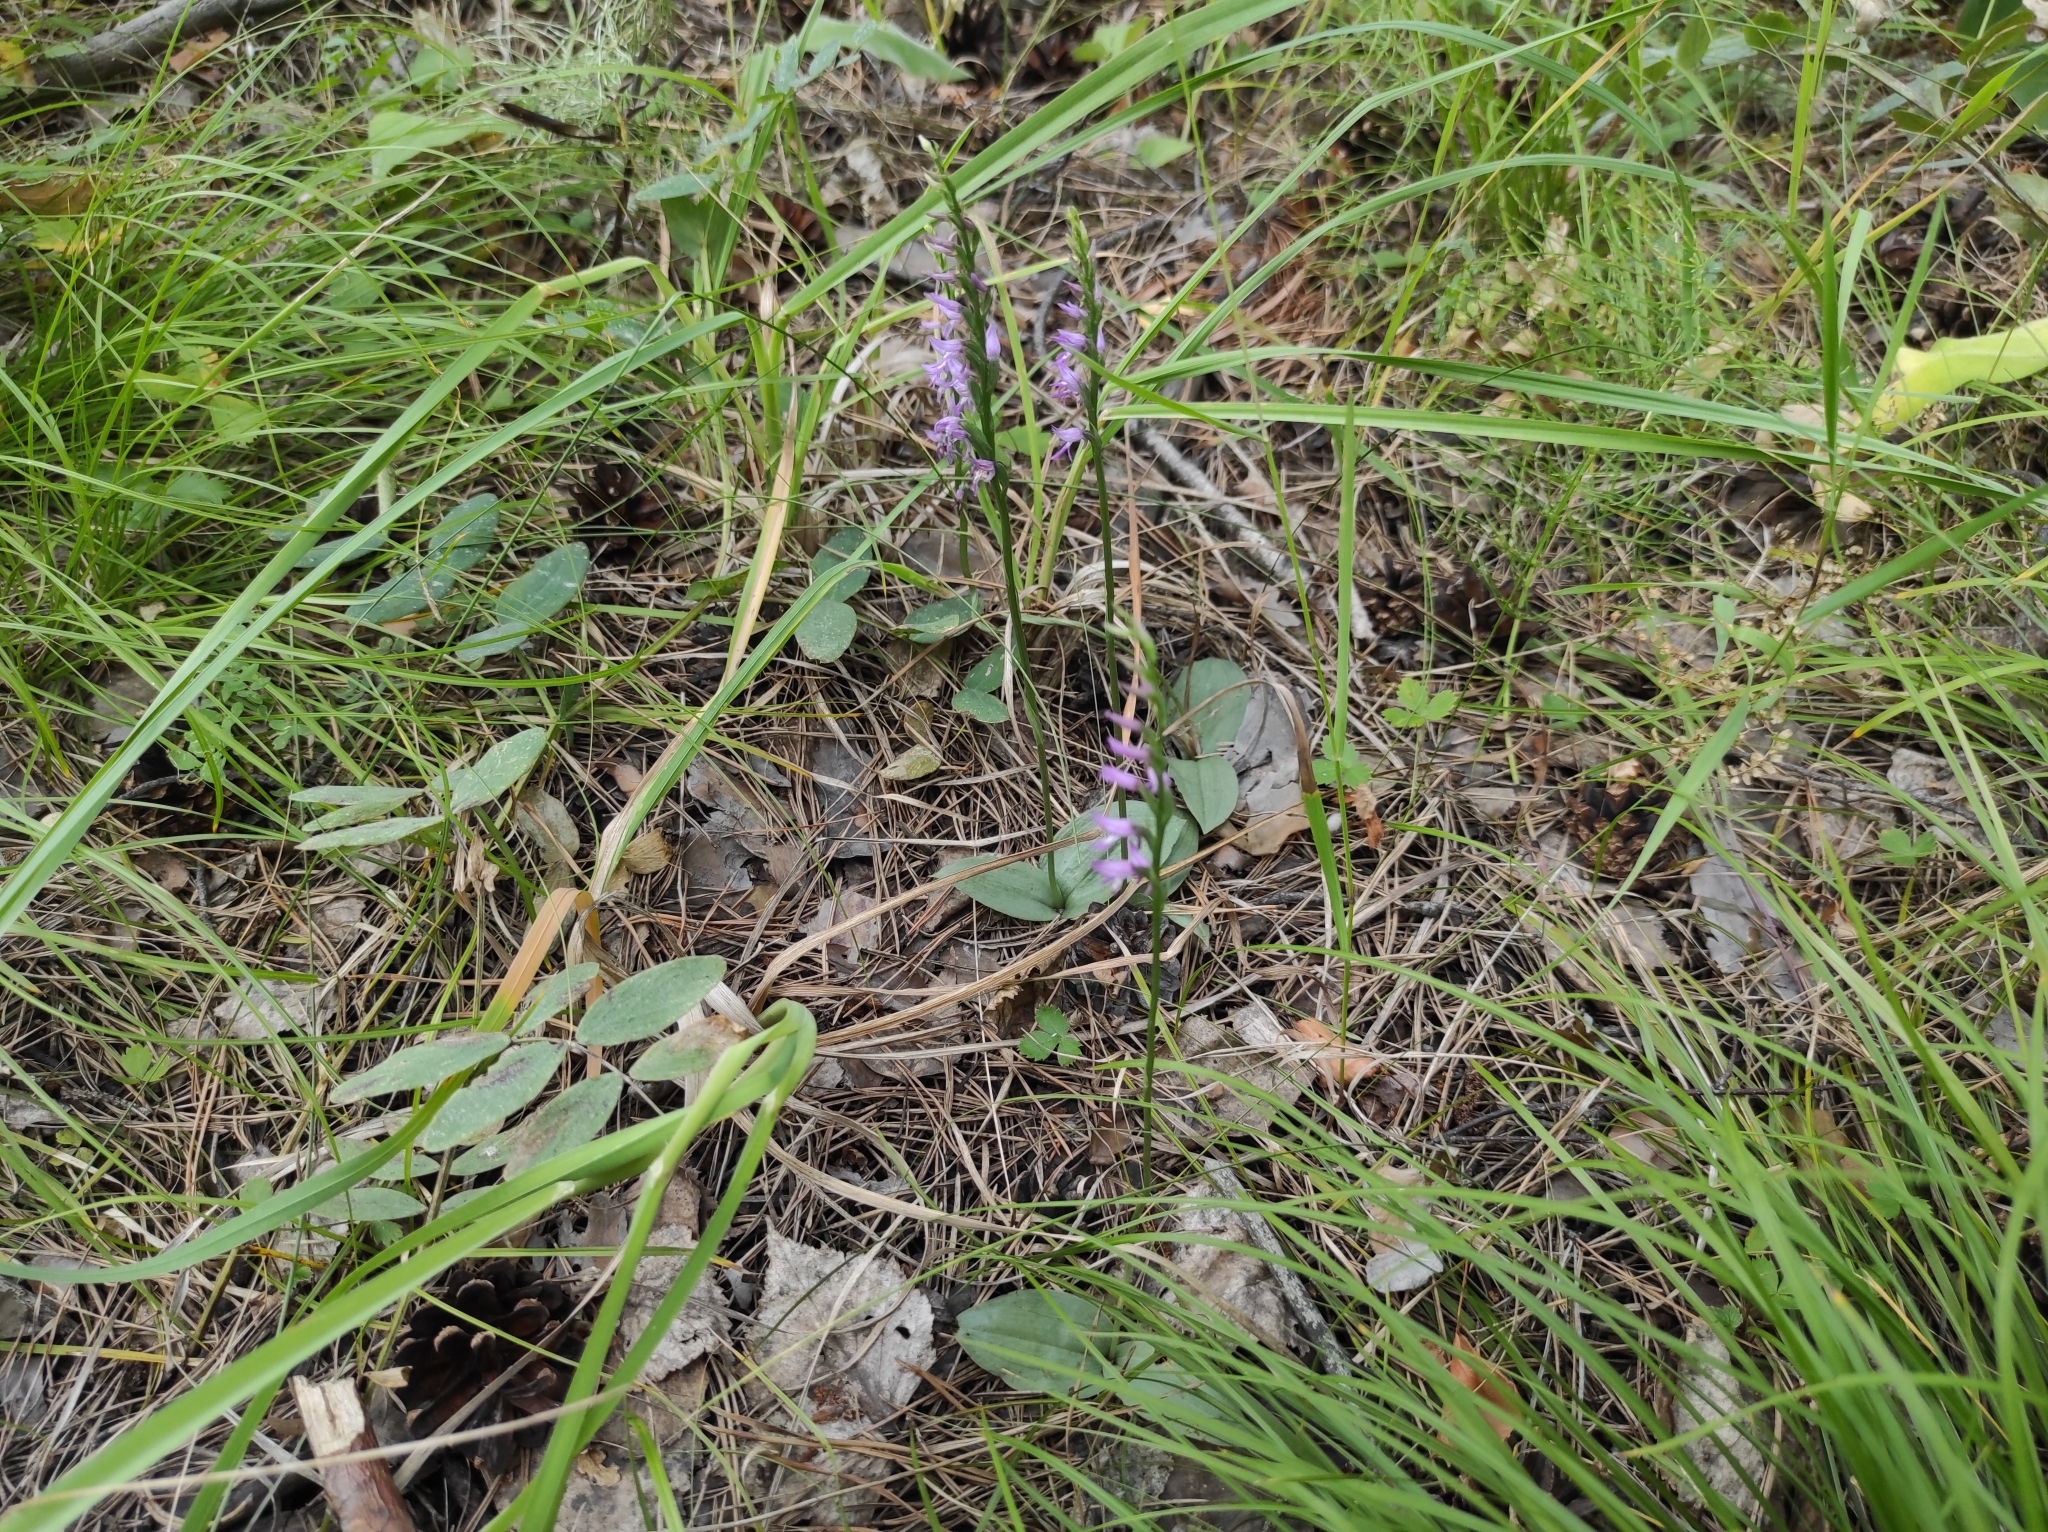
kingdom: Plantae
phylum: Tracheophyta
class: Liliopsida
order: Asparagales
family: Orchidaceae
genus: Hemipilia
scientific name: Hemipilia cucullata
